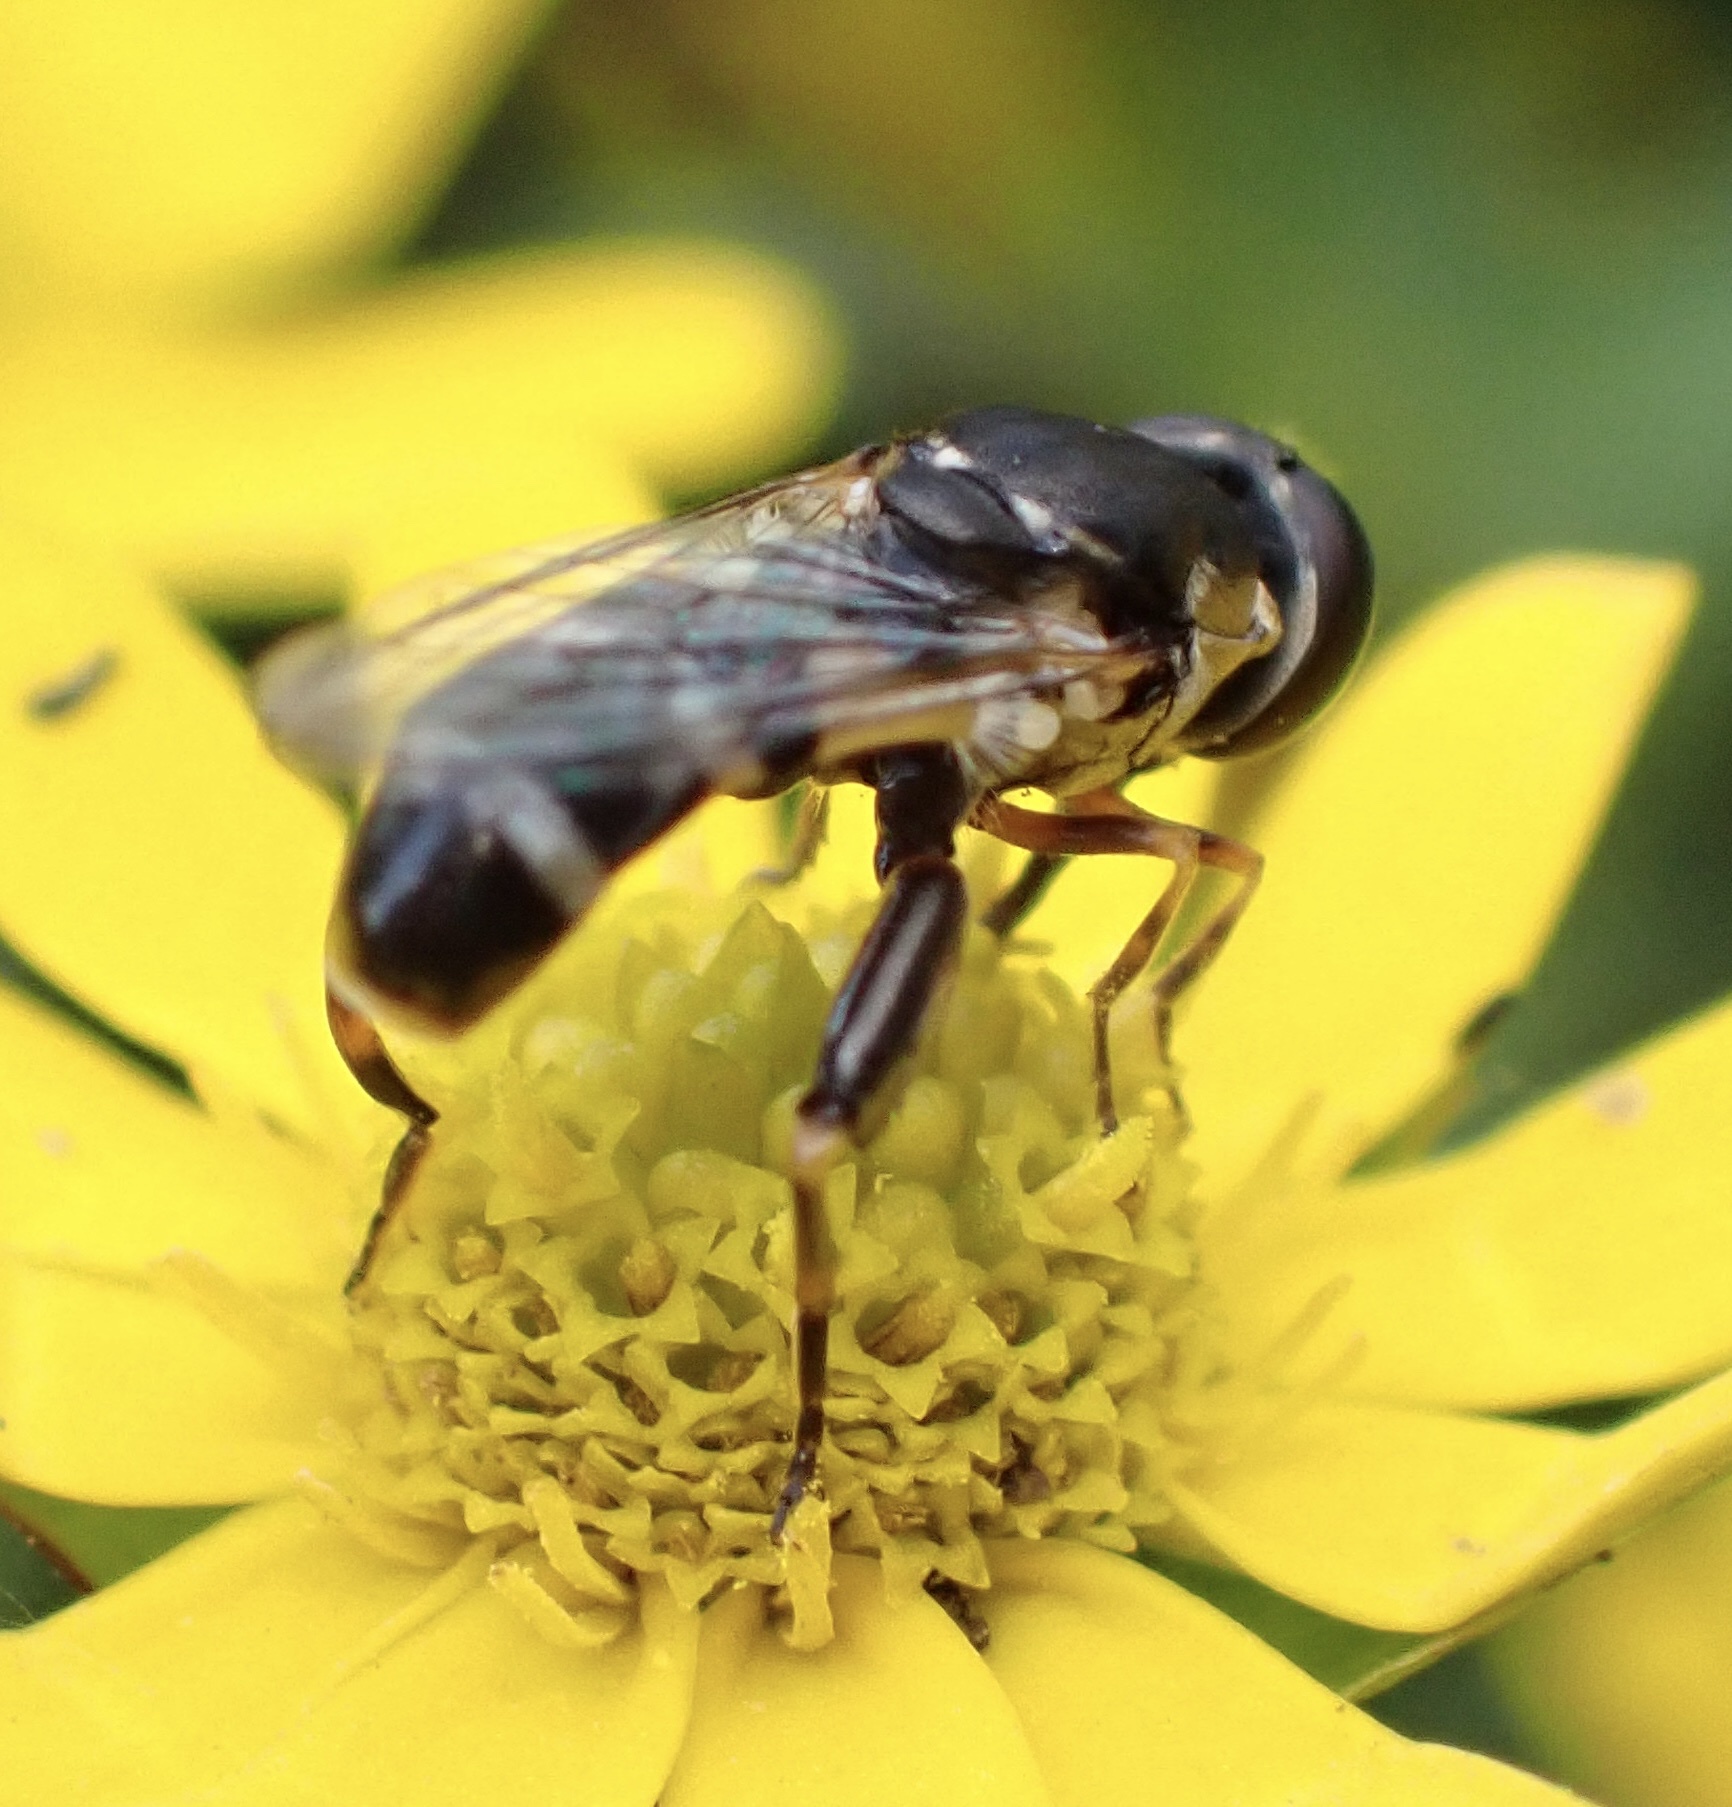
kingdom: Animalia
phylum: Arthropoda
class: Insecta
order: Diptera
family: Syrphidae
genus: Syritta
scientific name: Syritta pipiens
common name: Hover fly
